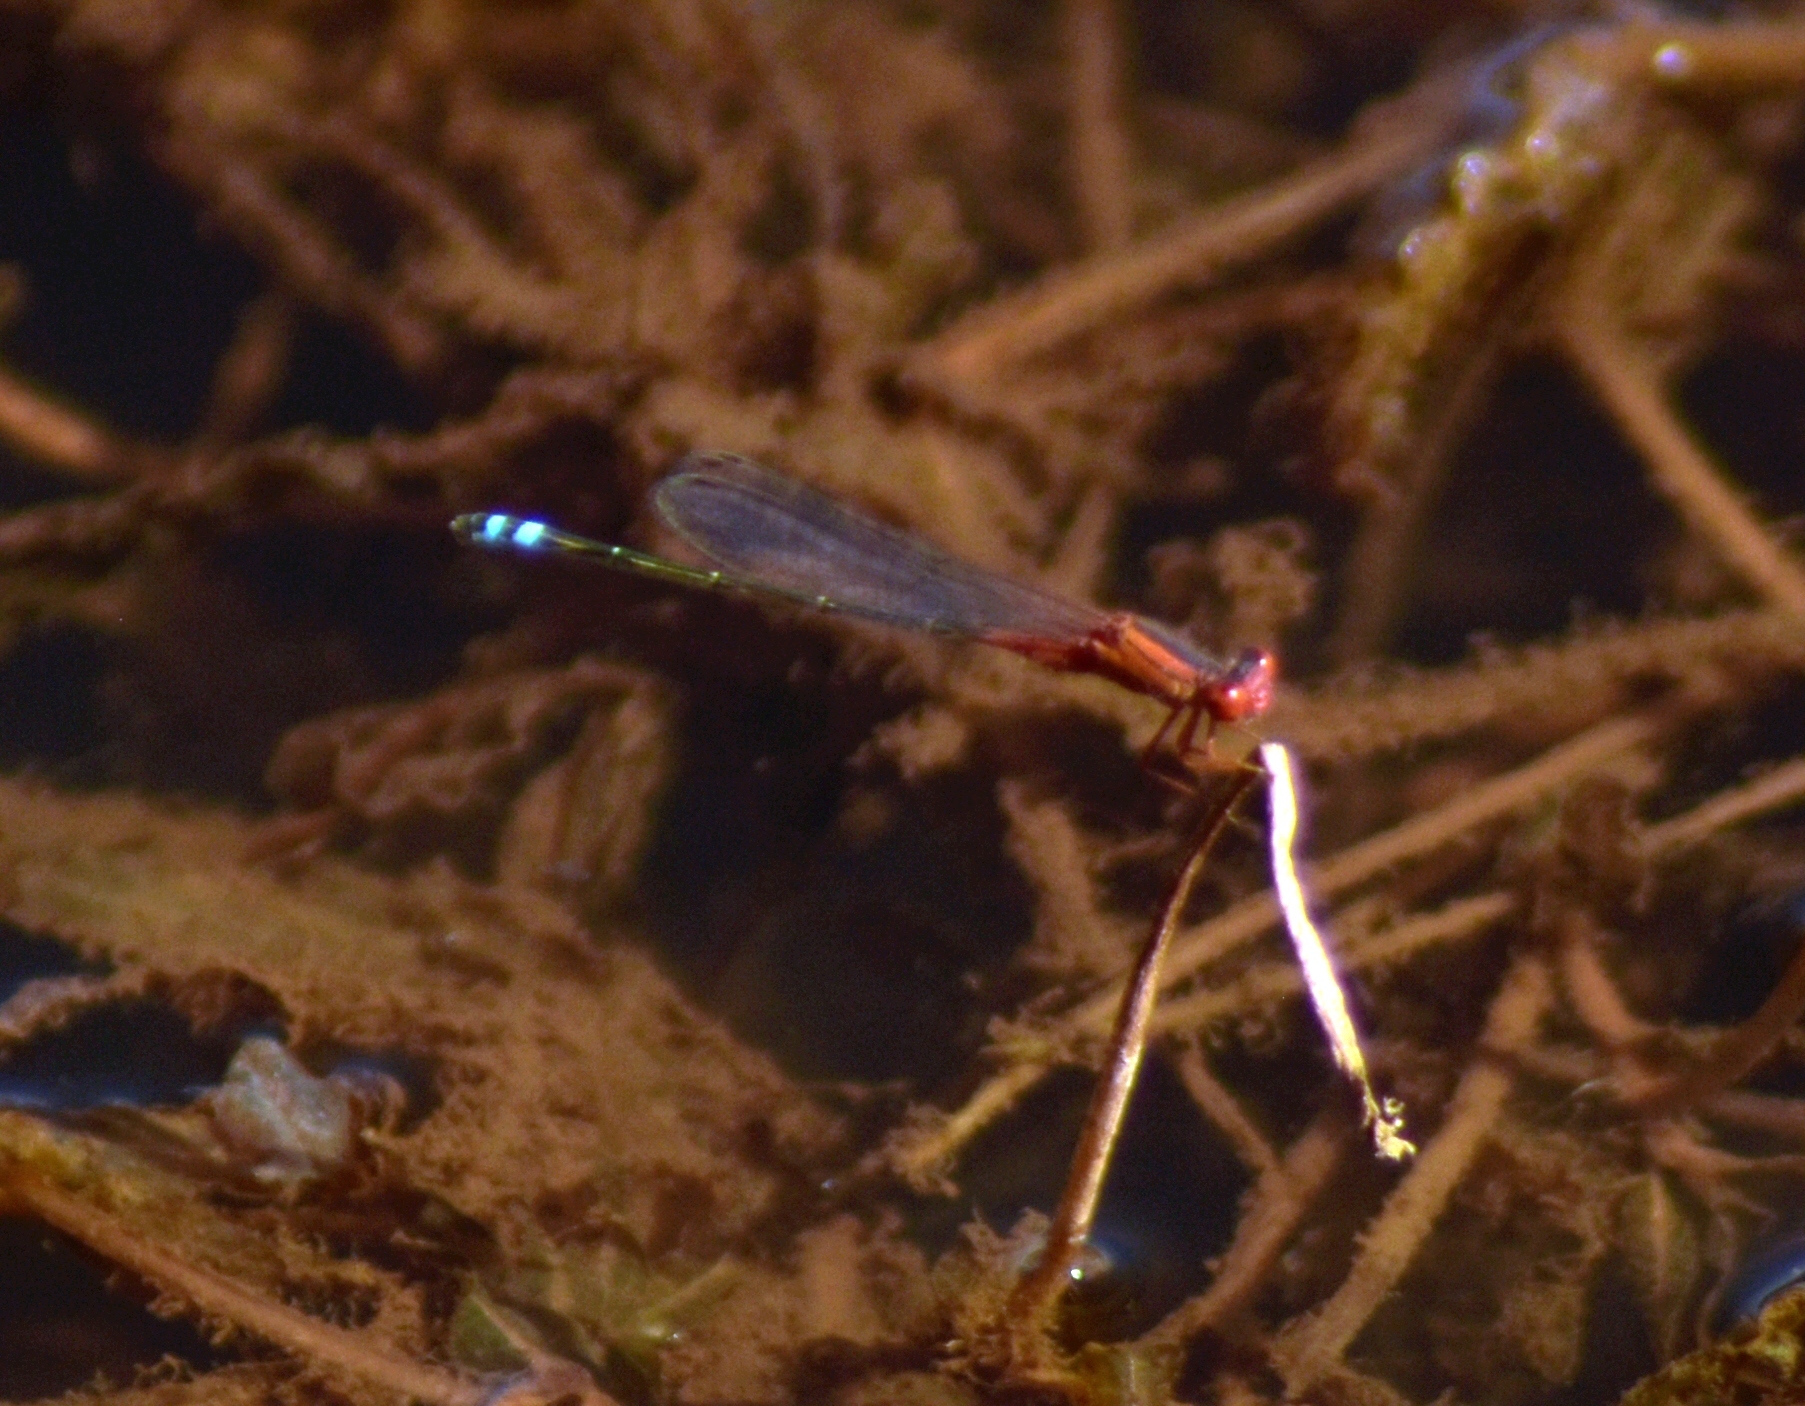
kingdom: Animalia
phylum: Arthropoda
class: Insecta
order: Odonata
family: Coenagrionidae
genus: Xanthagrion
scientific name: Xanthagrion erythroneurum
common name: Red and blue damsel
